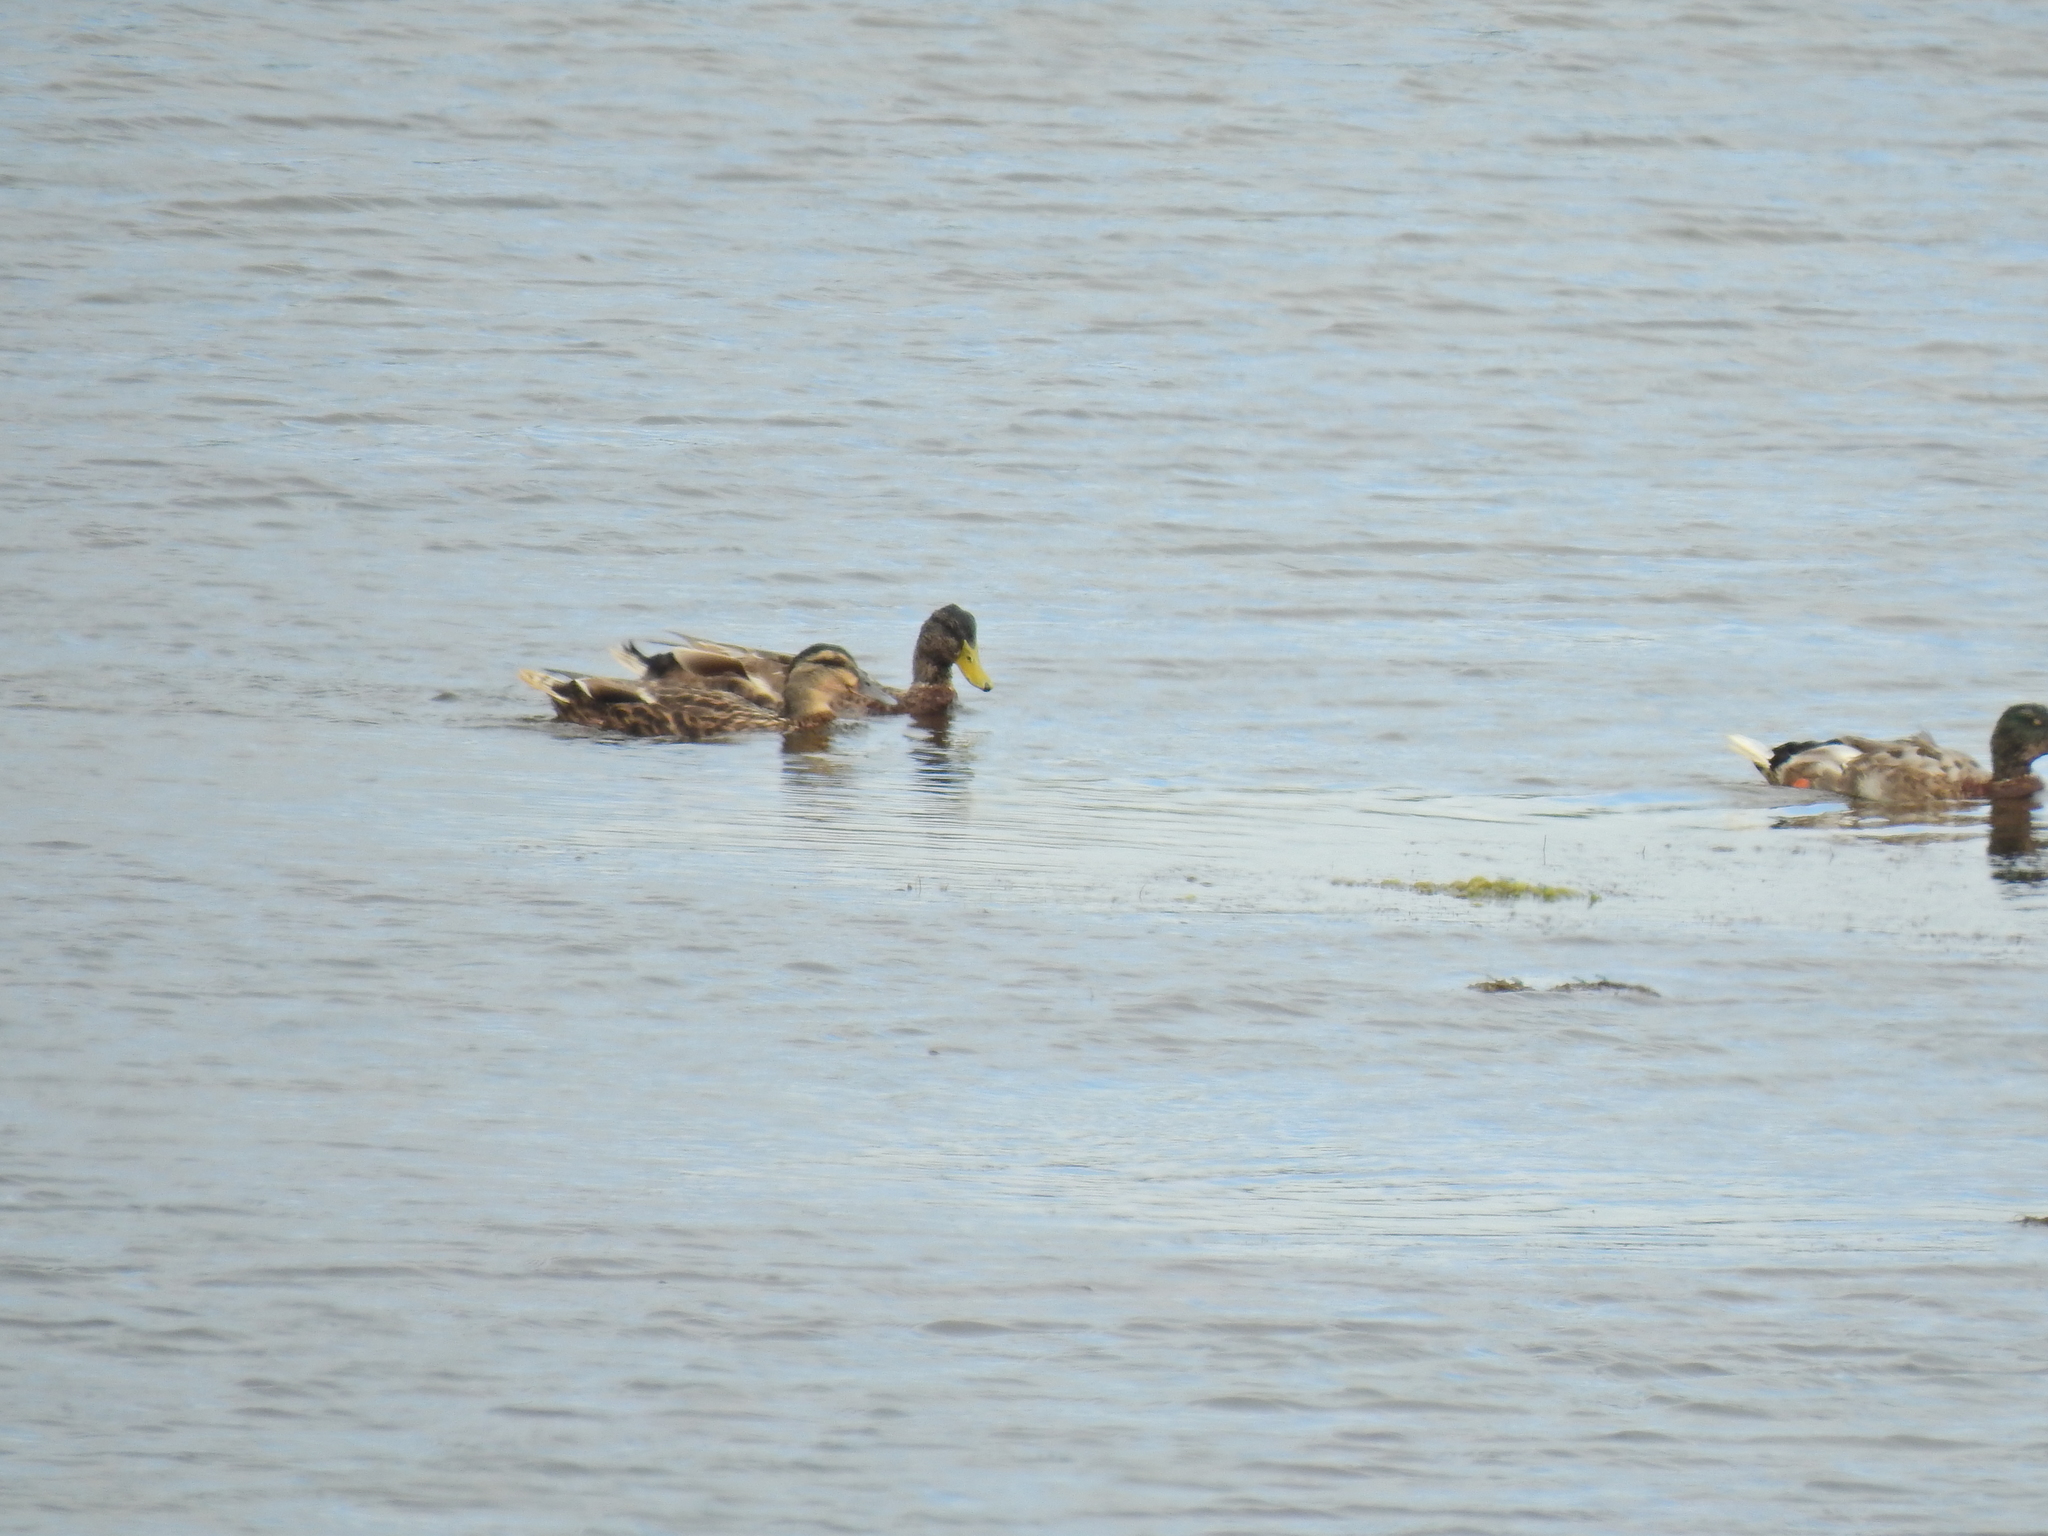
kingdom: Animalia
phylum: Chordata
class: Aves
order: Anseriformes
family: Anatidae
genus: Anas
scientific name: Anas platyrhynchos
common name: Mallard
